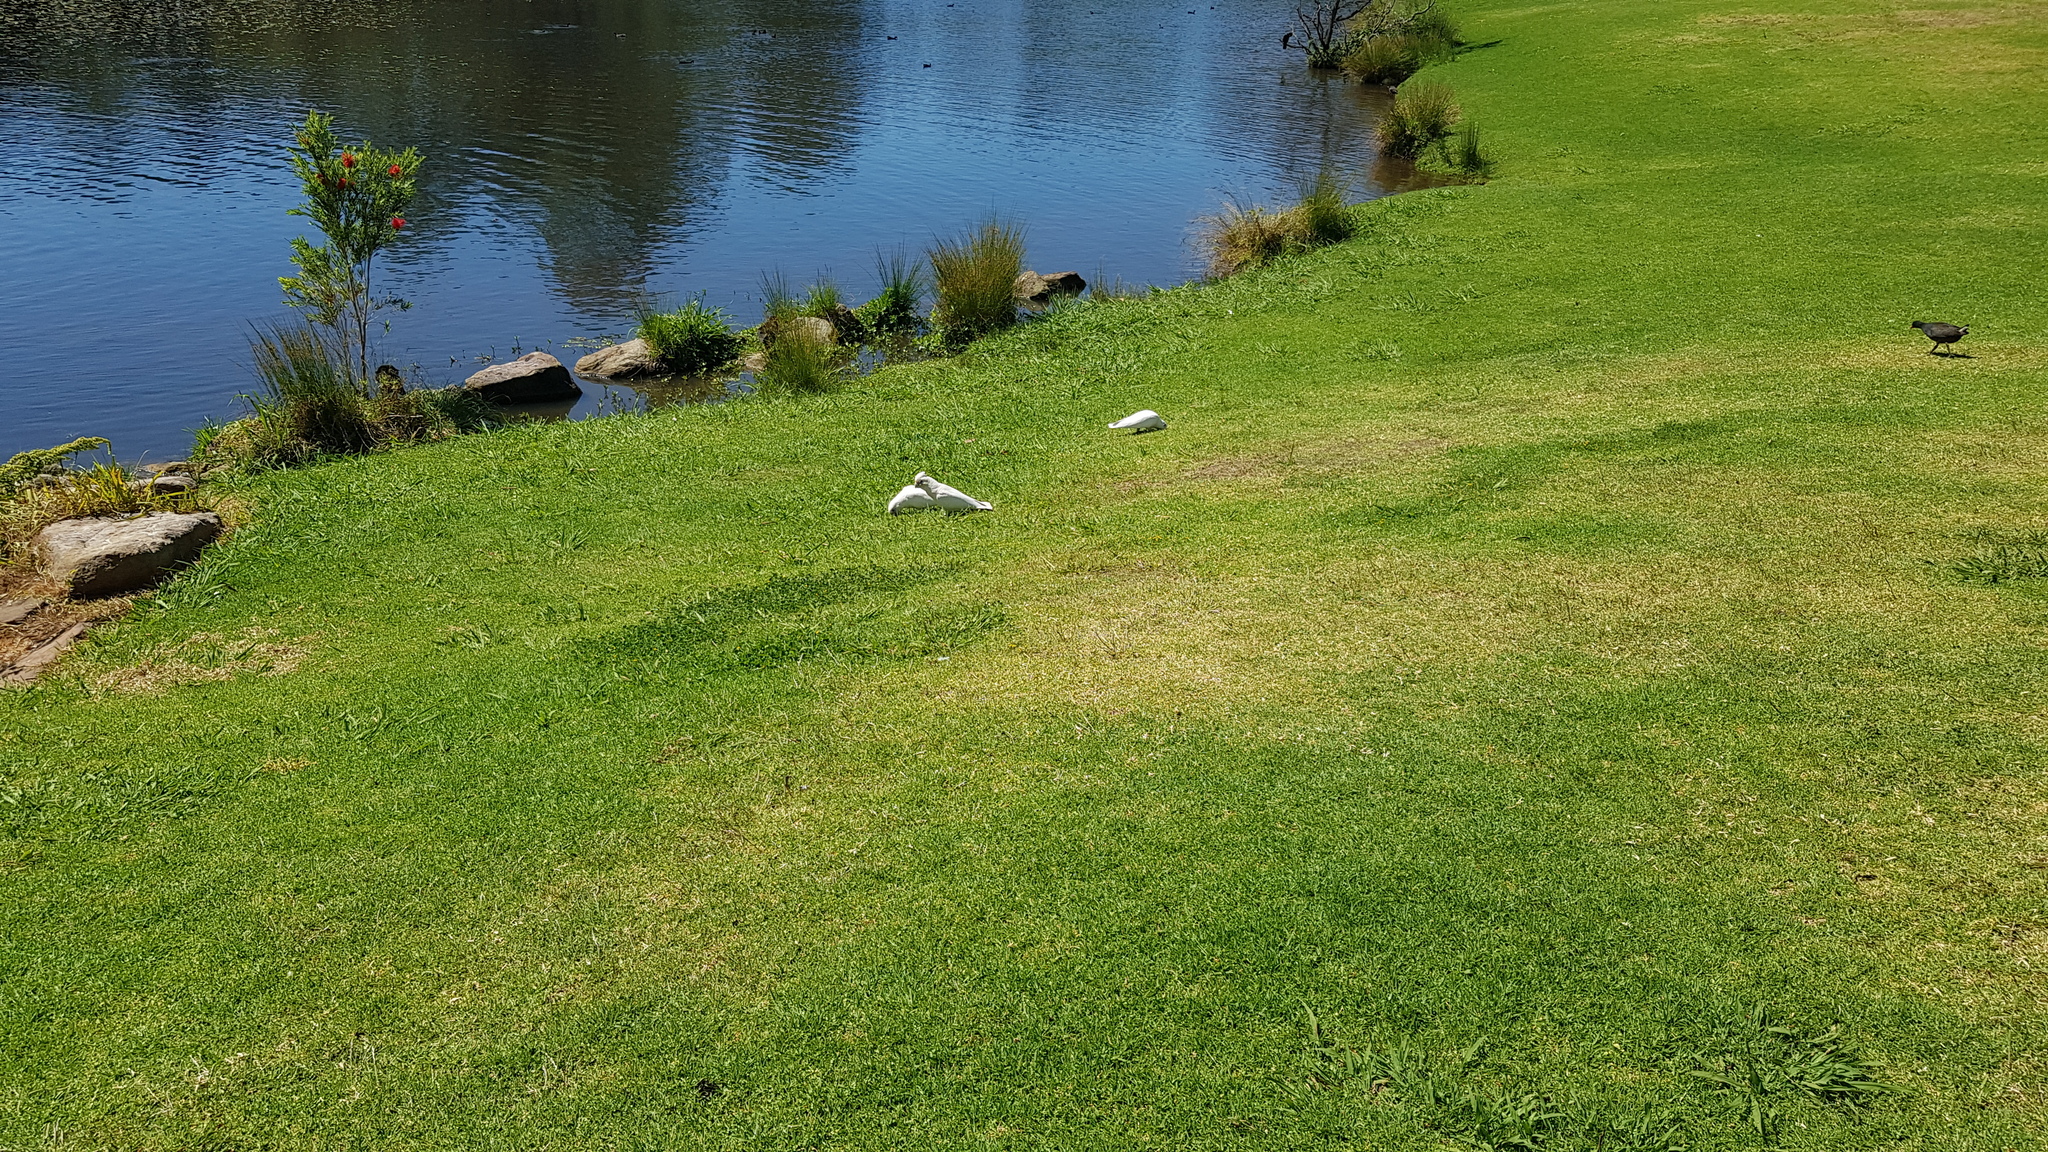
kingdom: Animalia
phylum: Chordata
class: Aves
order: Psittaciformes
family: Psittacidae
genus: Cacatua
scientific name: Cacatua sanguinea
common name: Little corella
